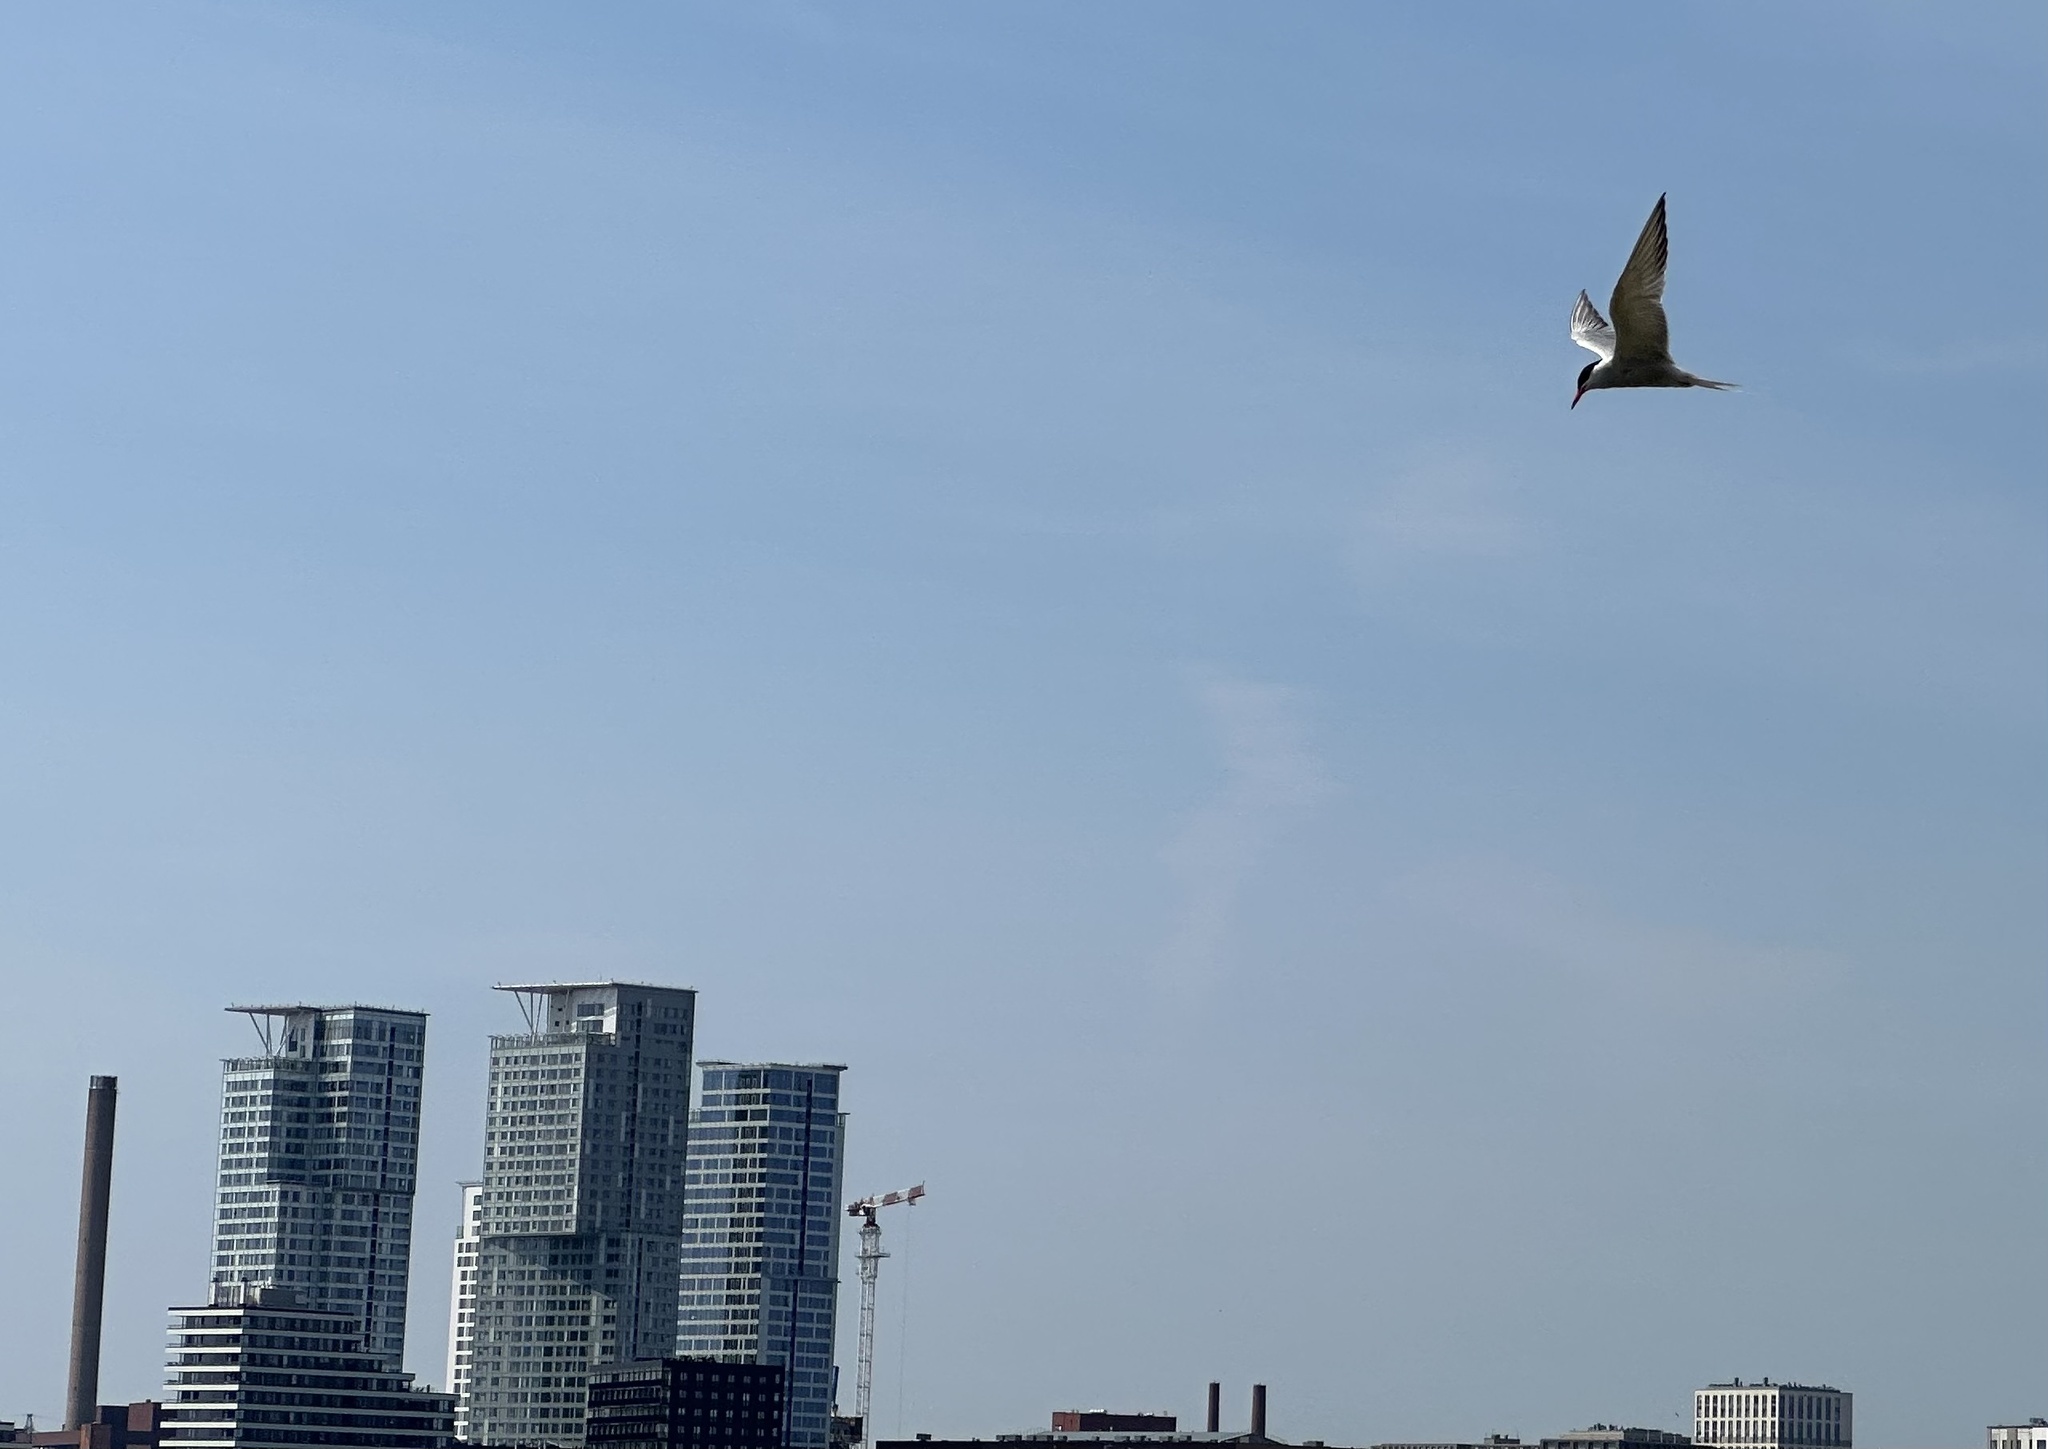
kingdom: Animalia
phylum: Chordata
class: Aves
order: Charadriiformes
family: Laridae
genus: Sterna
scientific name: Sterna hirundo
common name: Common tern
